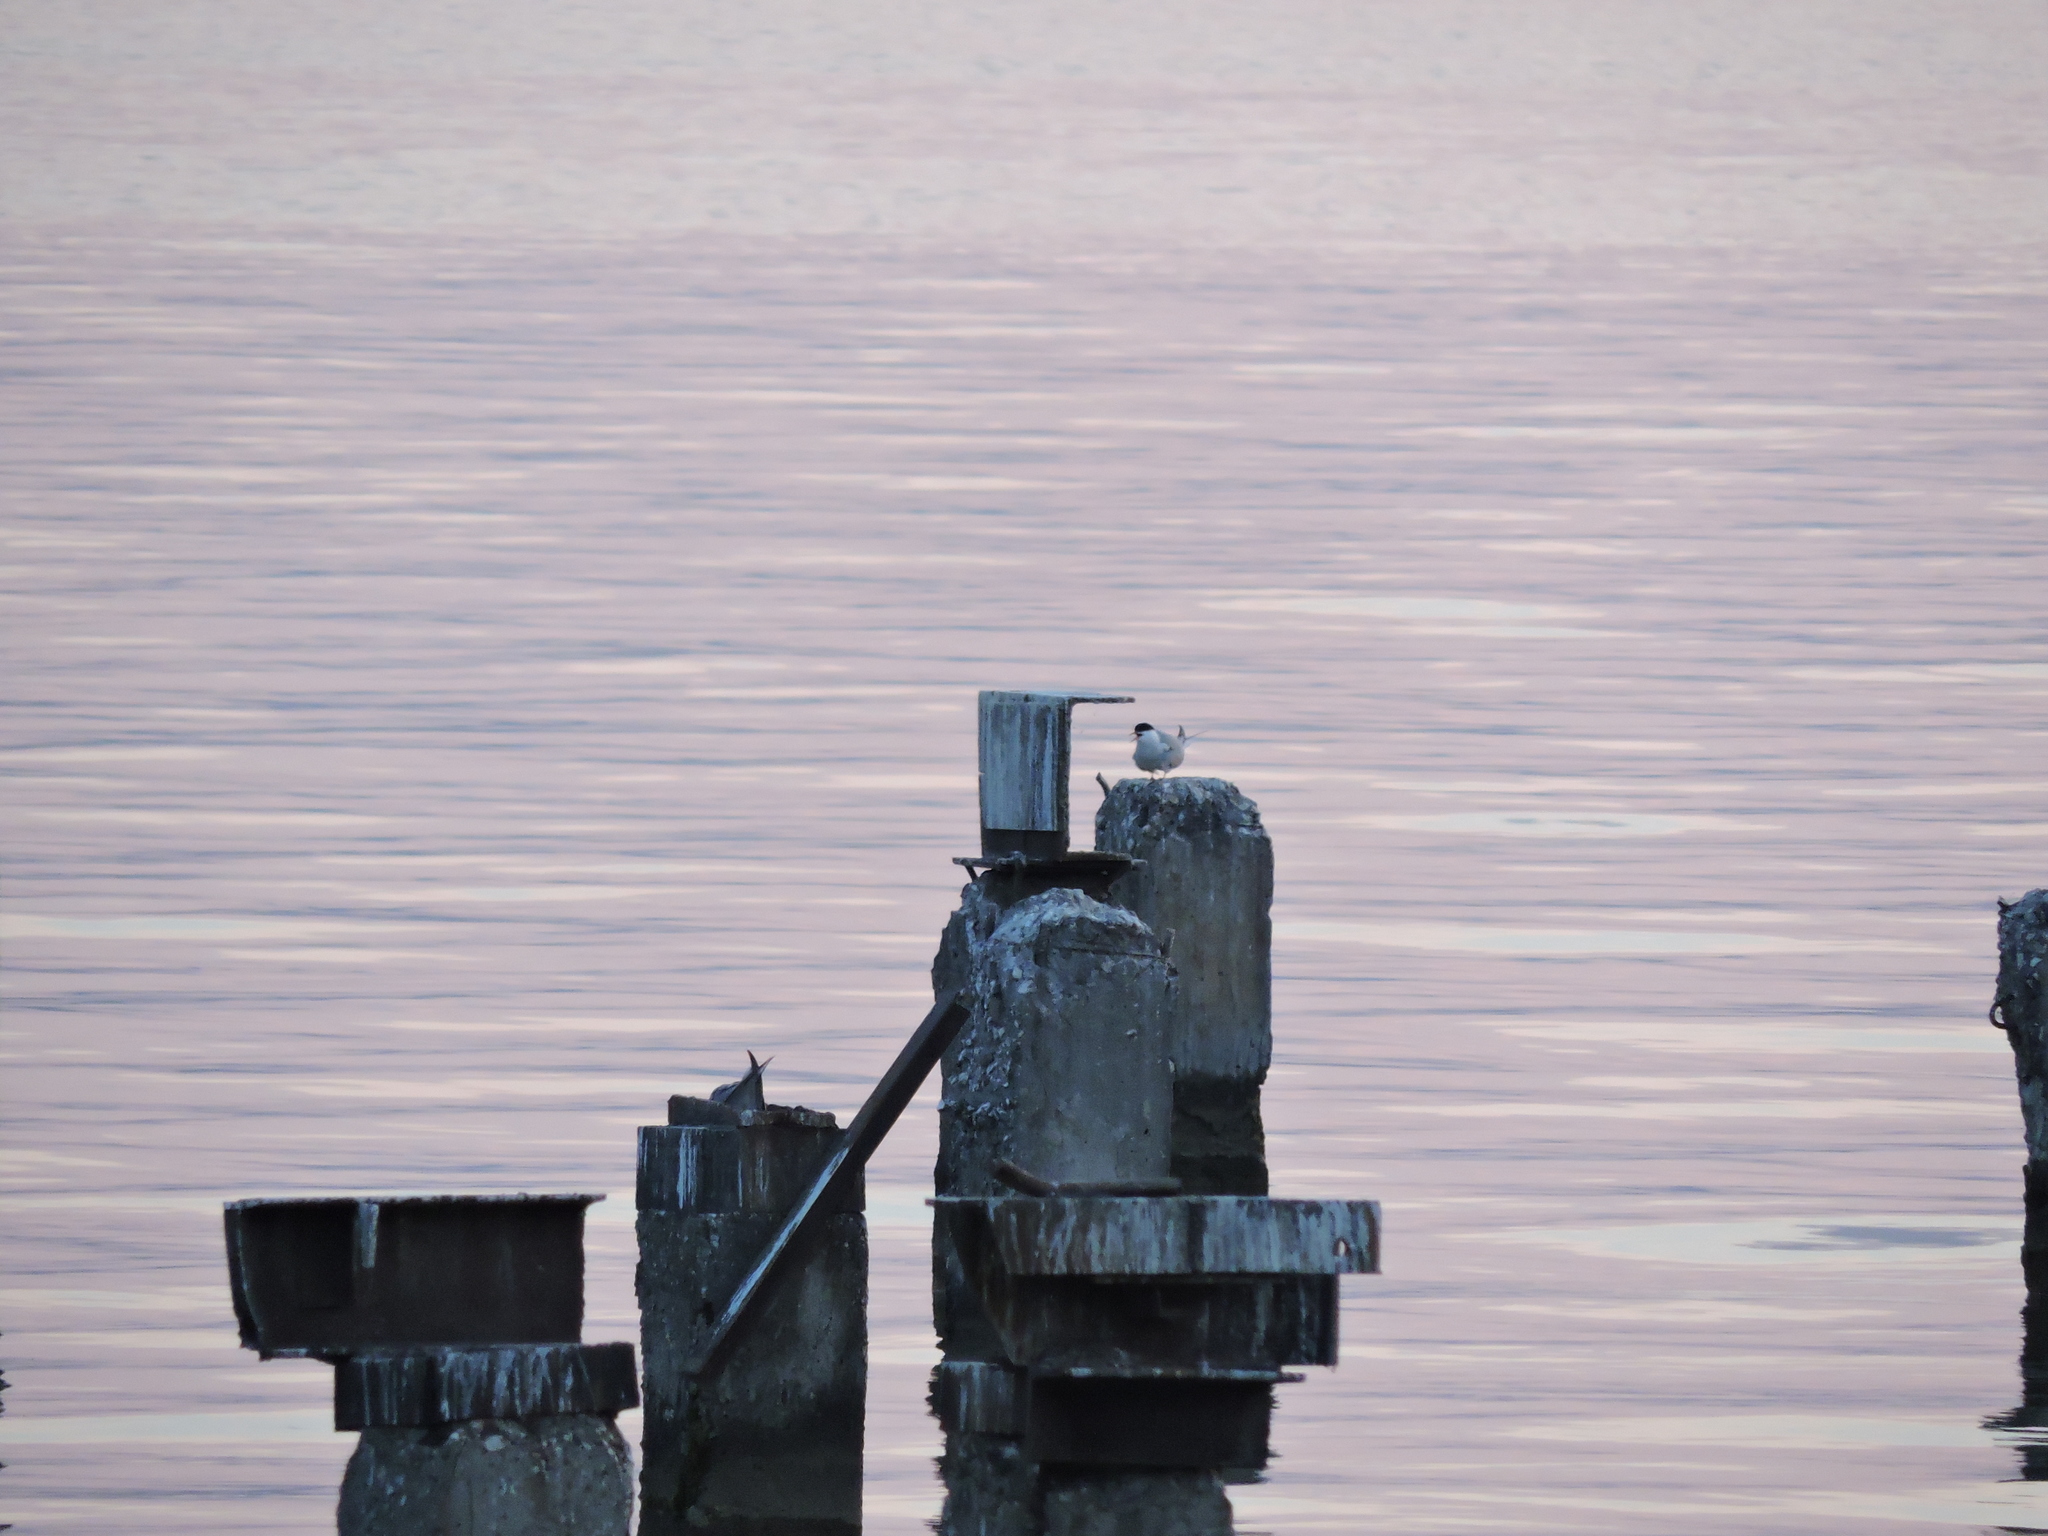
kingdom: Animalia
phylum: Chordata
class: Aves
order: Charadriiformes
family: Laridae
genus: Sterna
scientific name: Sterna hirundo
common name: Common tern
